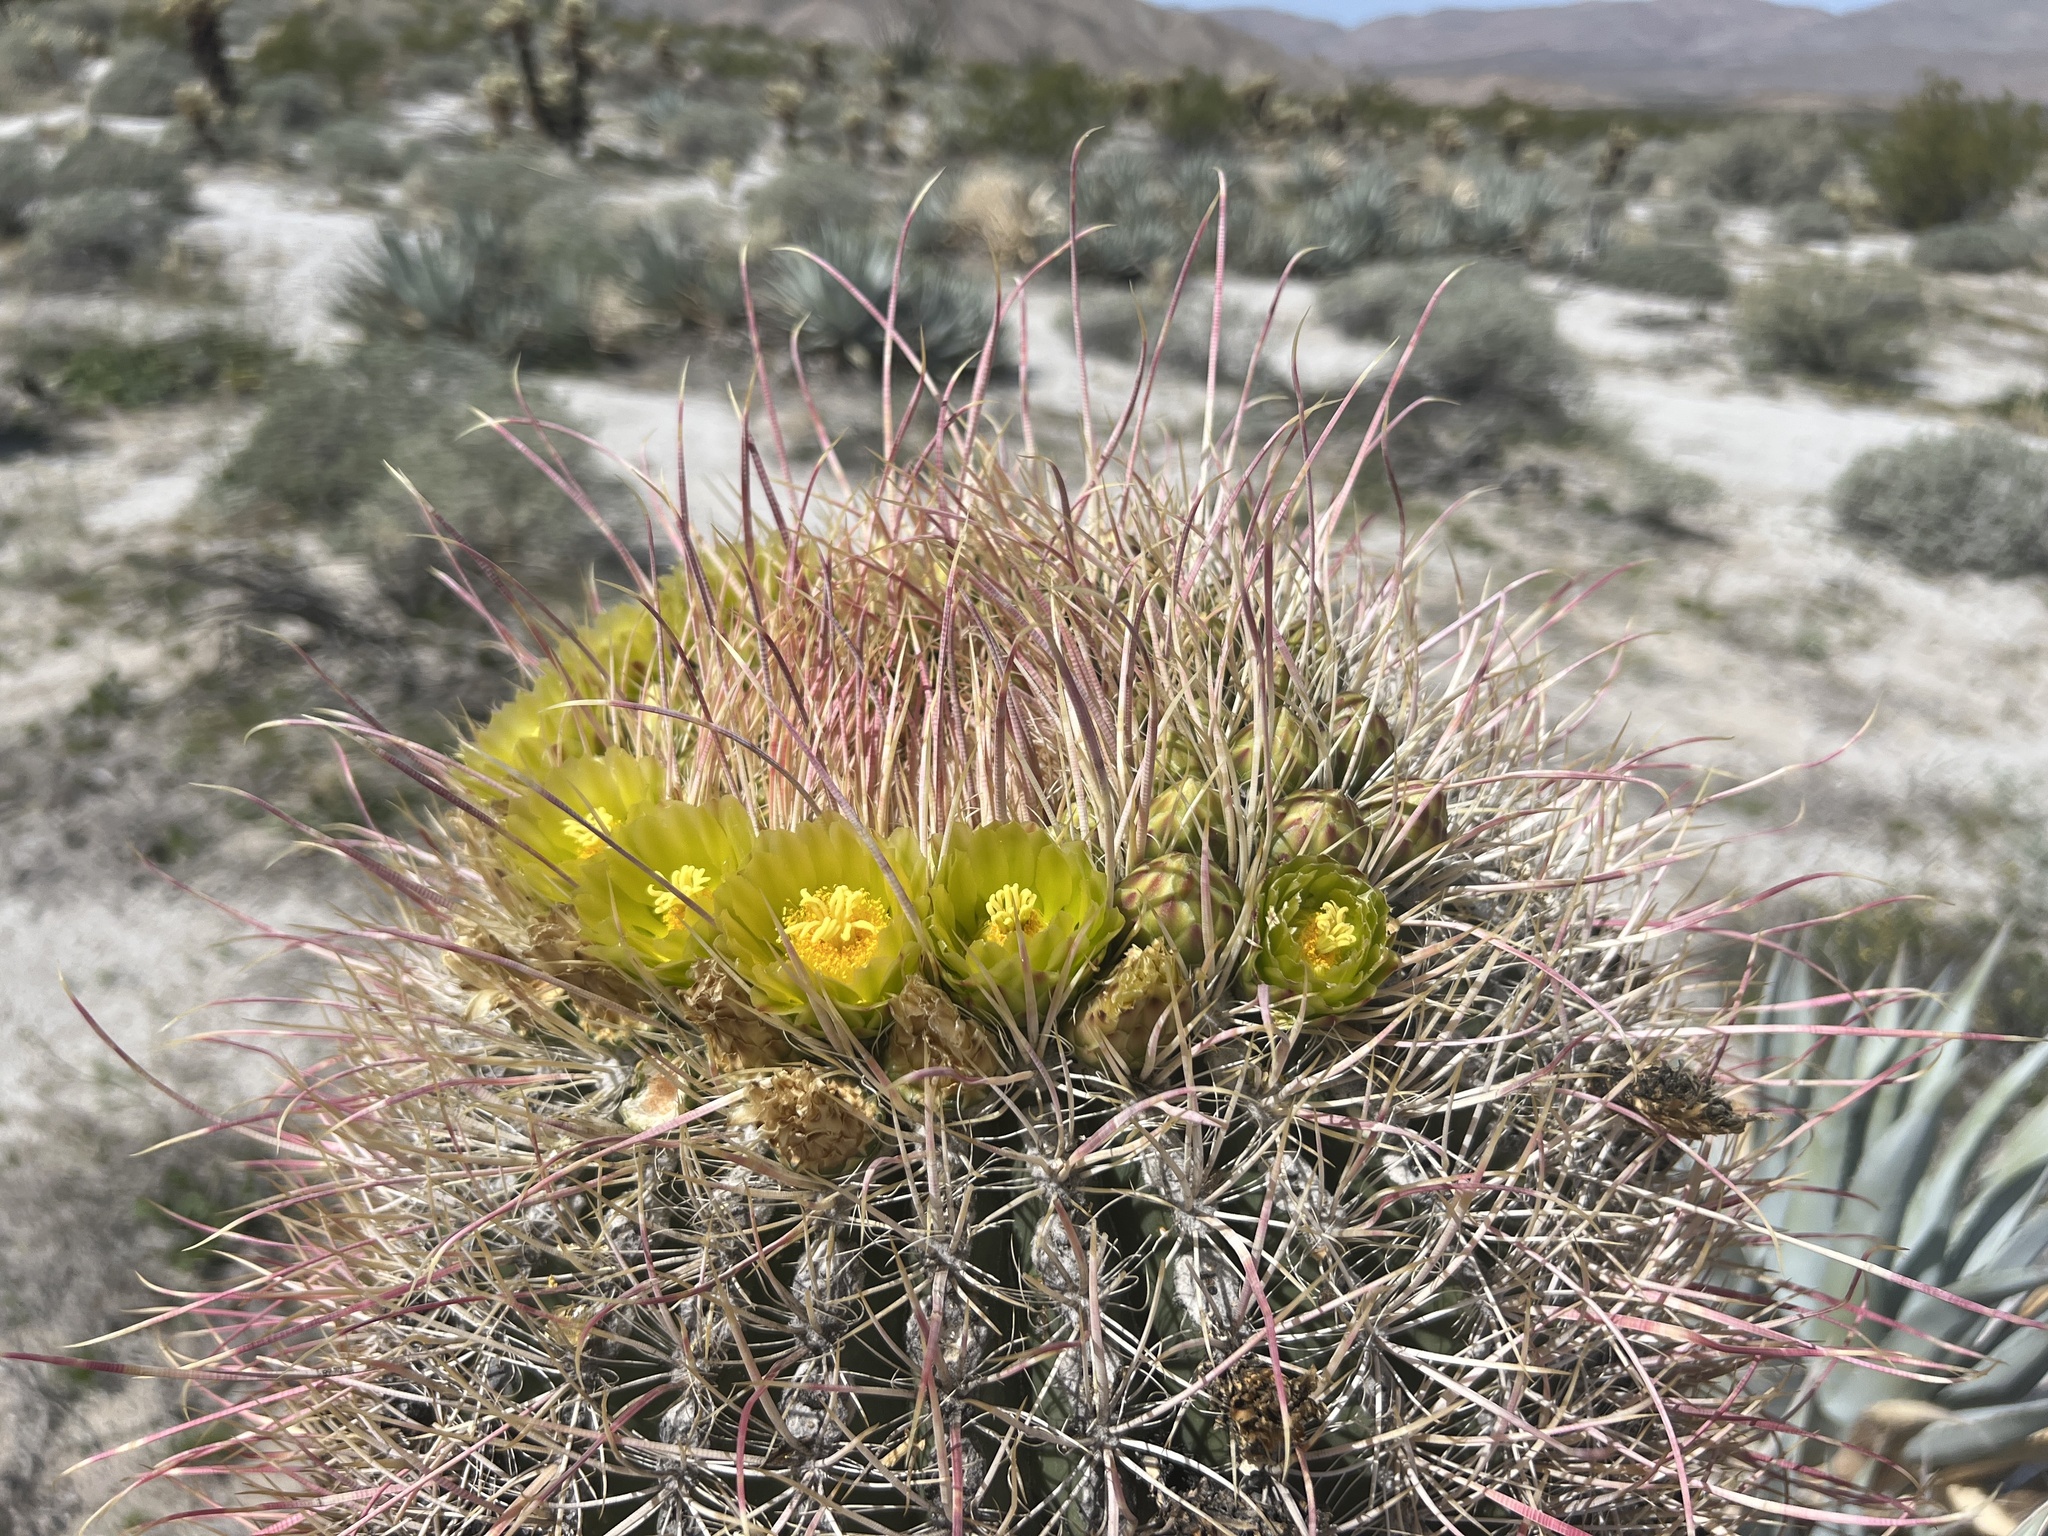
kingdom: Plantae
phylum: Tracheophyta
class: Magnoliopsida
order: Caryophyllales
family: Cactaceae
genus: Ferocactus
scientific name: Ferocactus cylindraceus
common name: California barrel cactus
